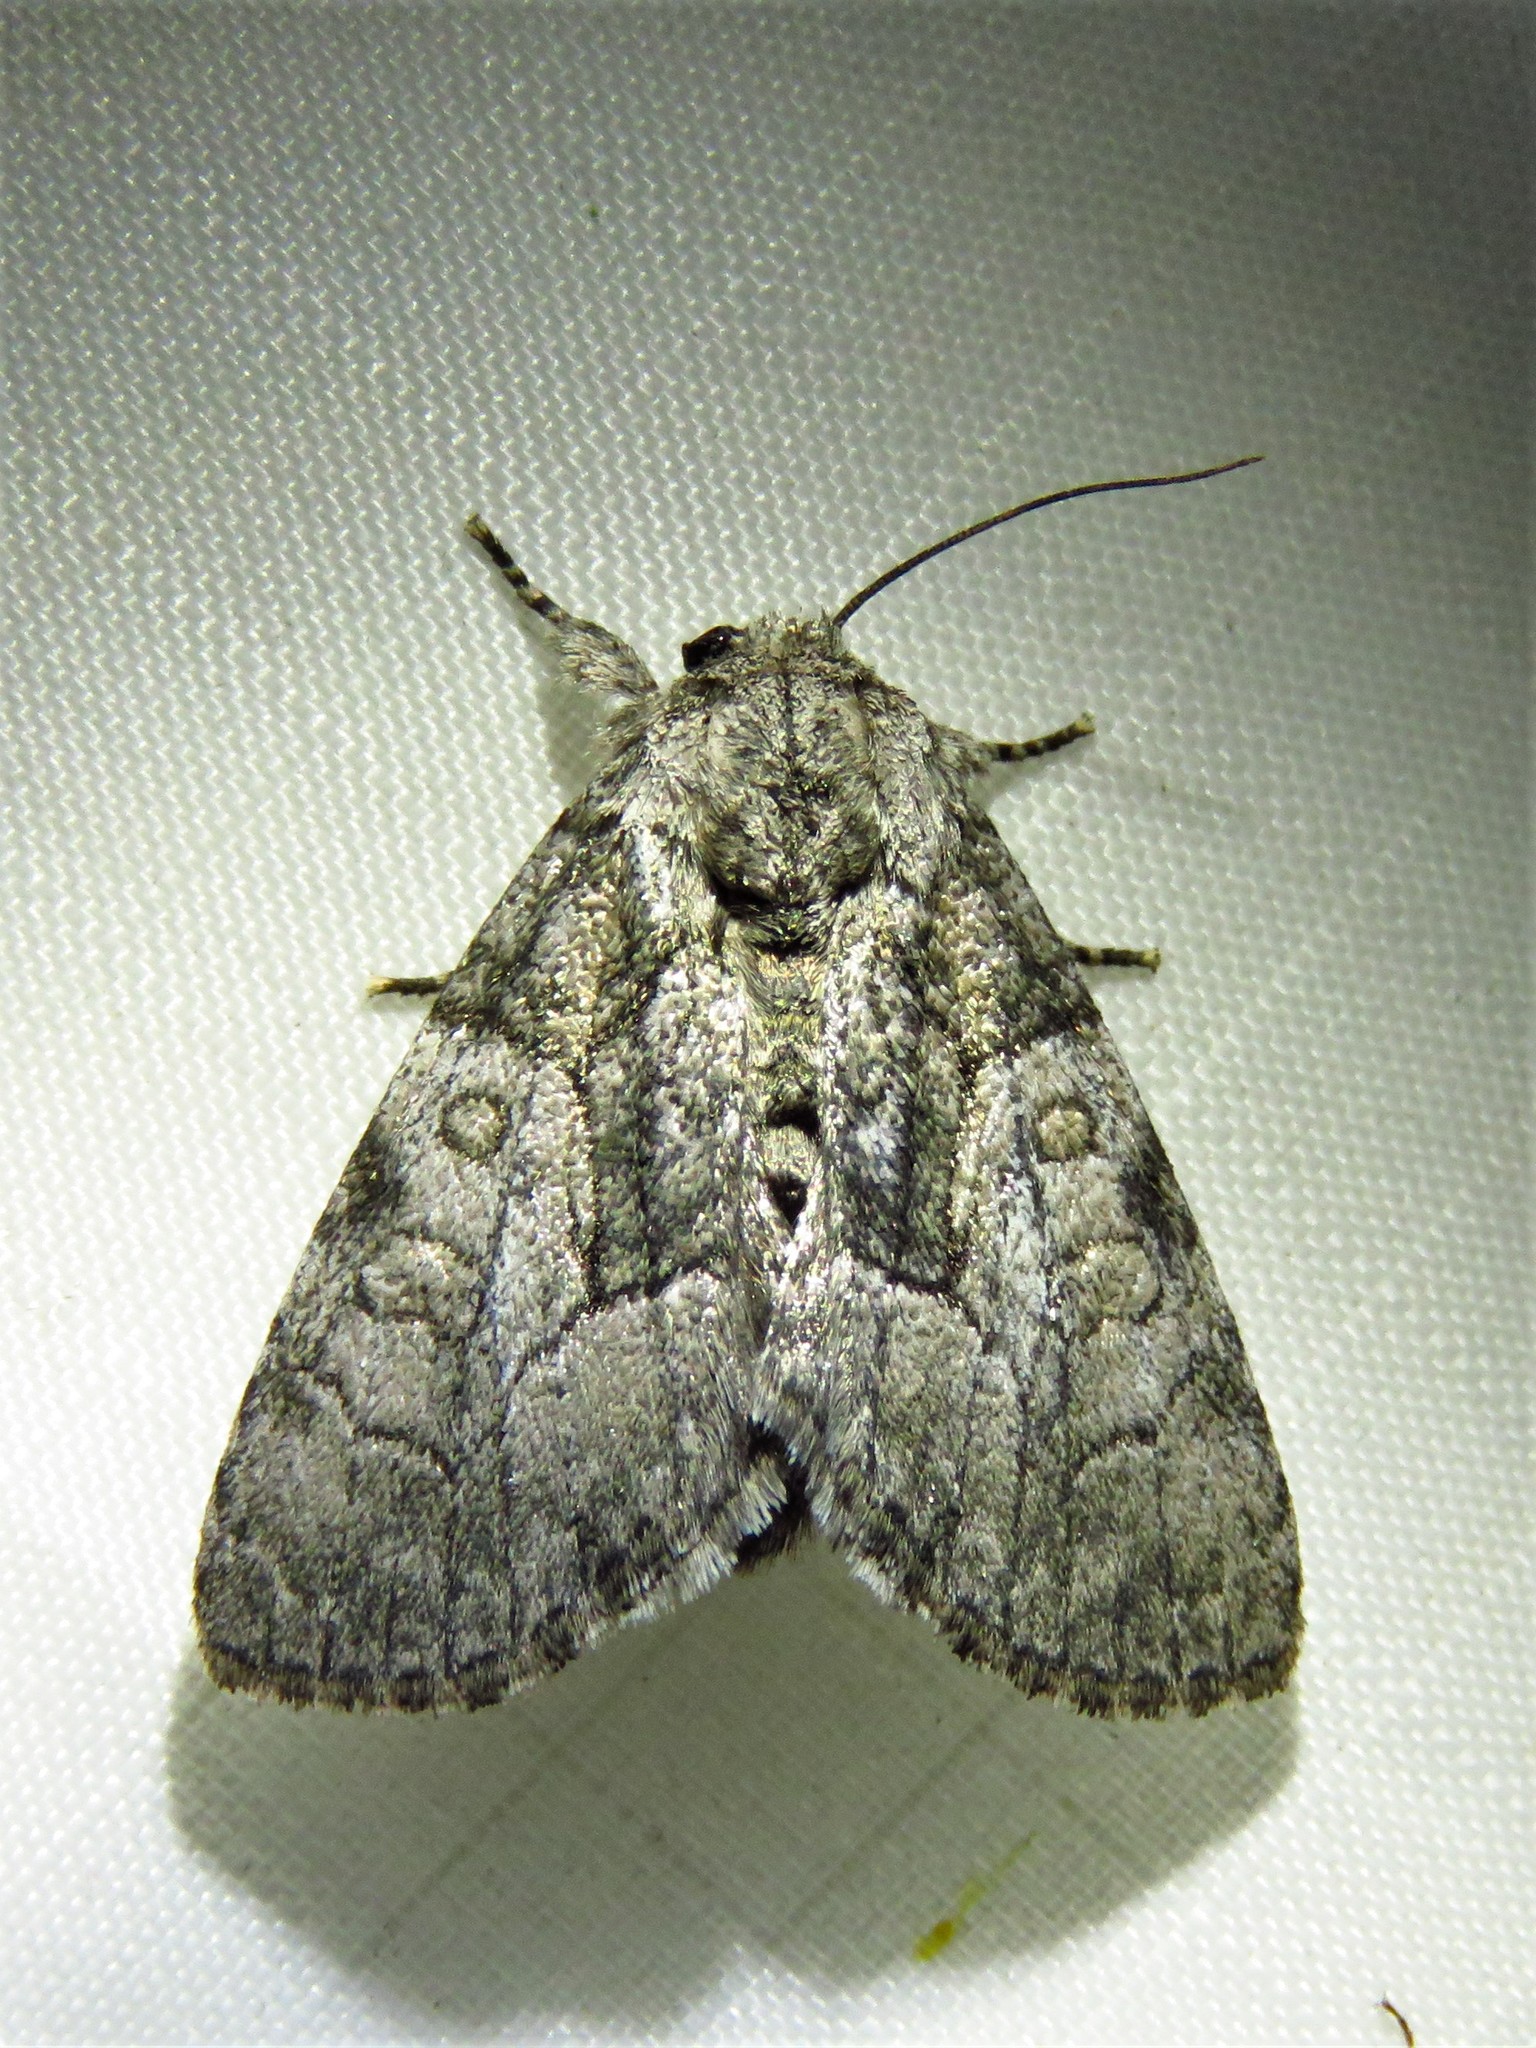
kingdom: Animalia
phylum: Arthropoda
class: Insecta
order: Lepidoptera
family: Noctuidae
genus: Raphia
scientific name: Raphia frater
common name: Brother
